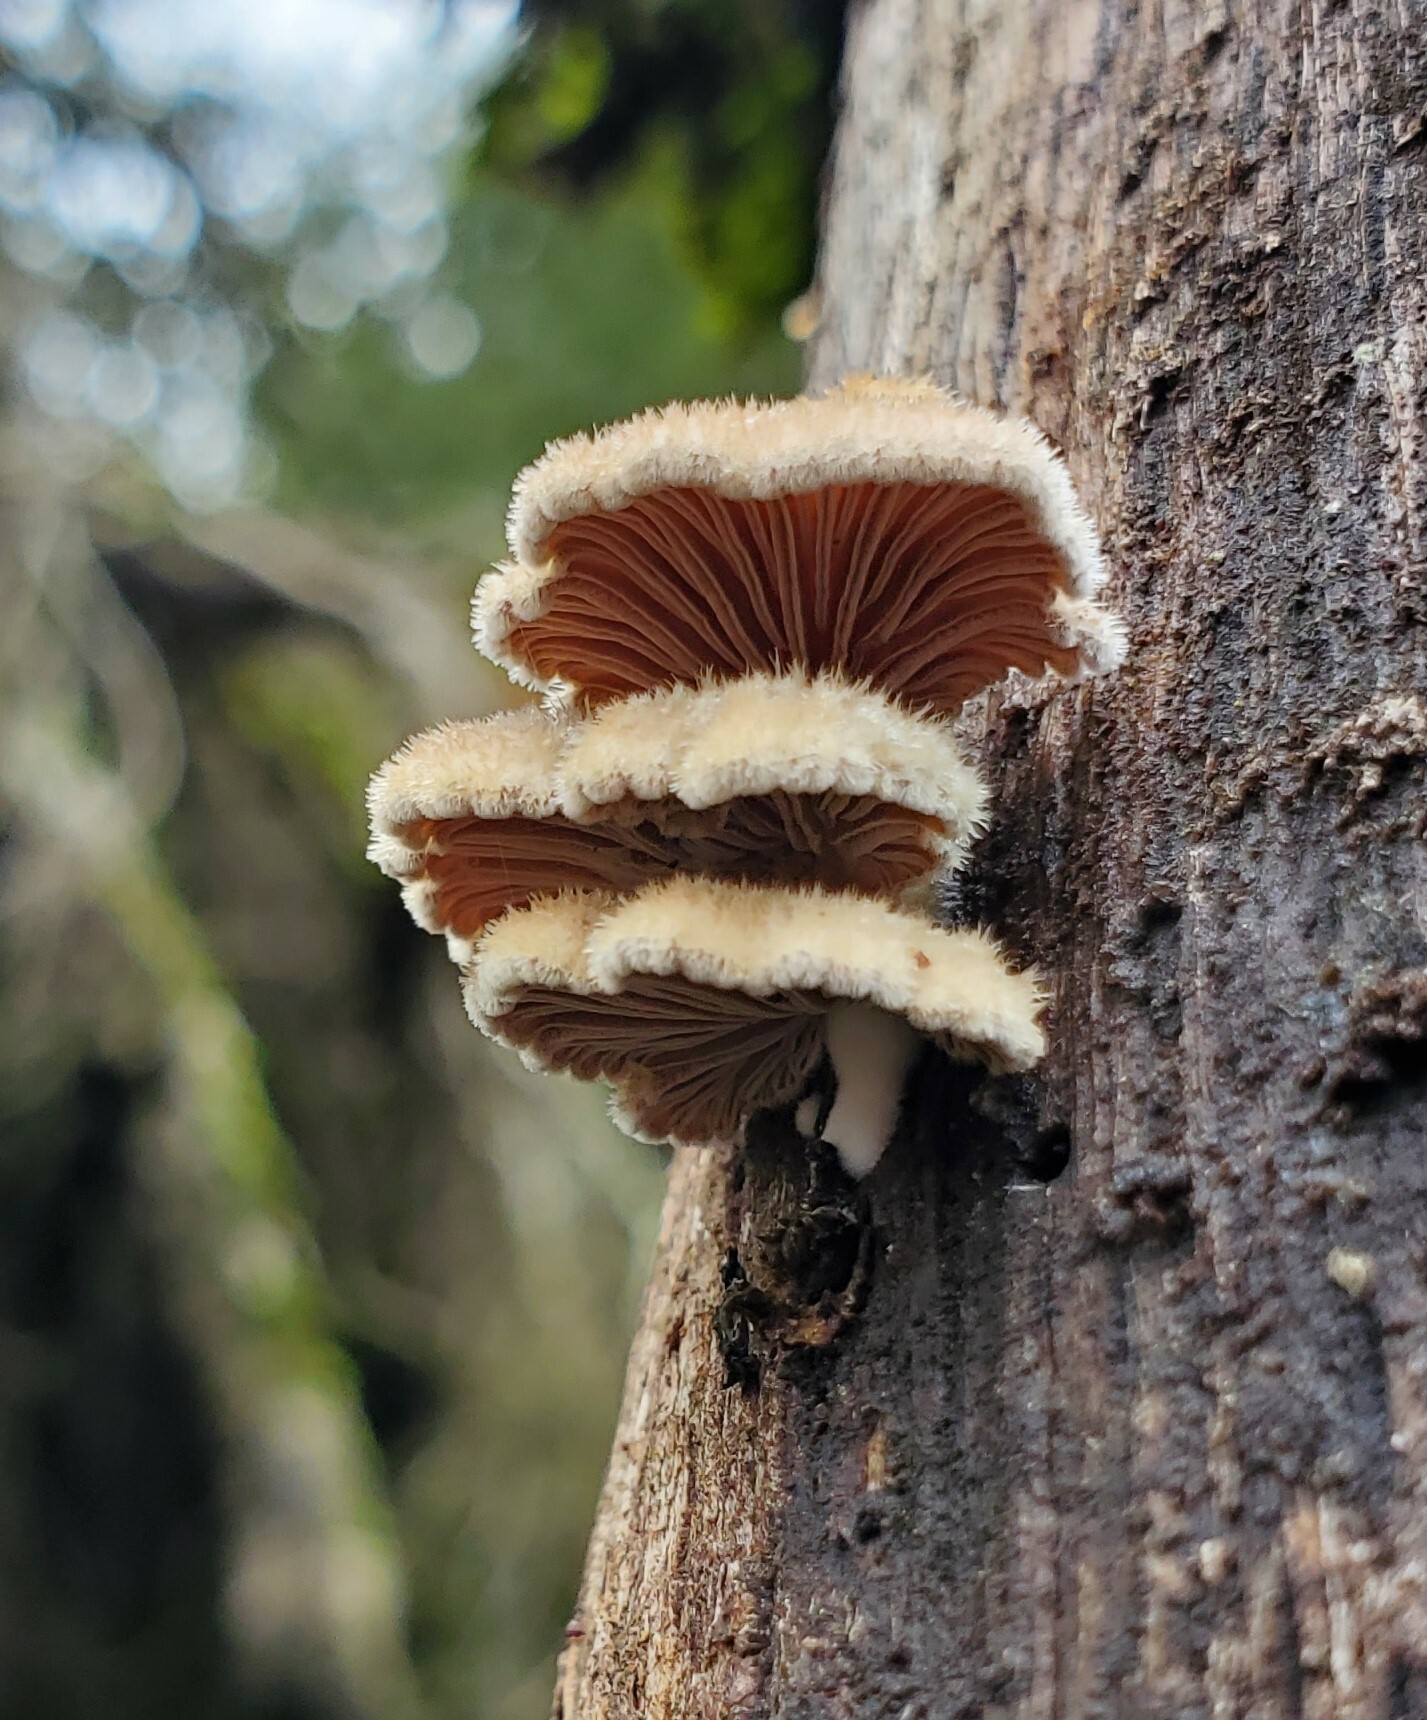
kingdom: Fungi
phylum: Basidiomycota
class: Agaricomycetes
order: Agaricales
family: Schizophyllaceae
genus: Schizophyllum
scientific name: Schizophyllum commune
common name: Common porecrust
